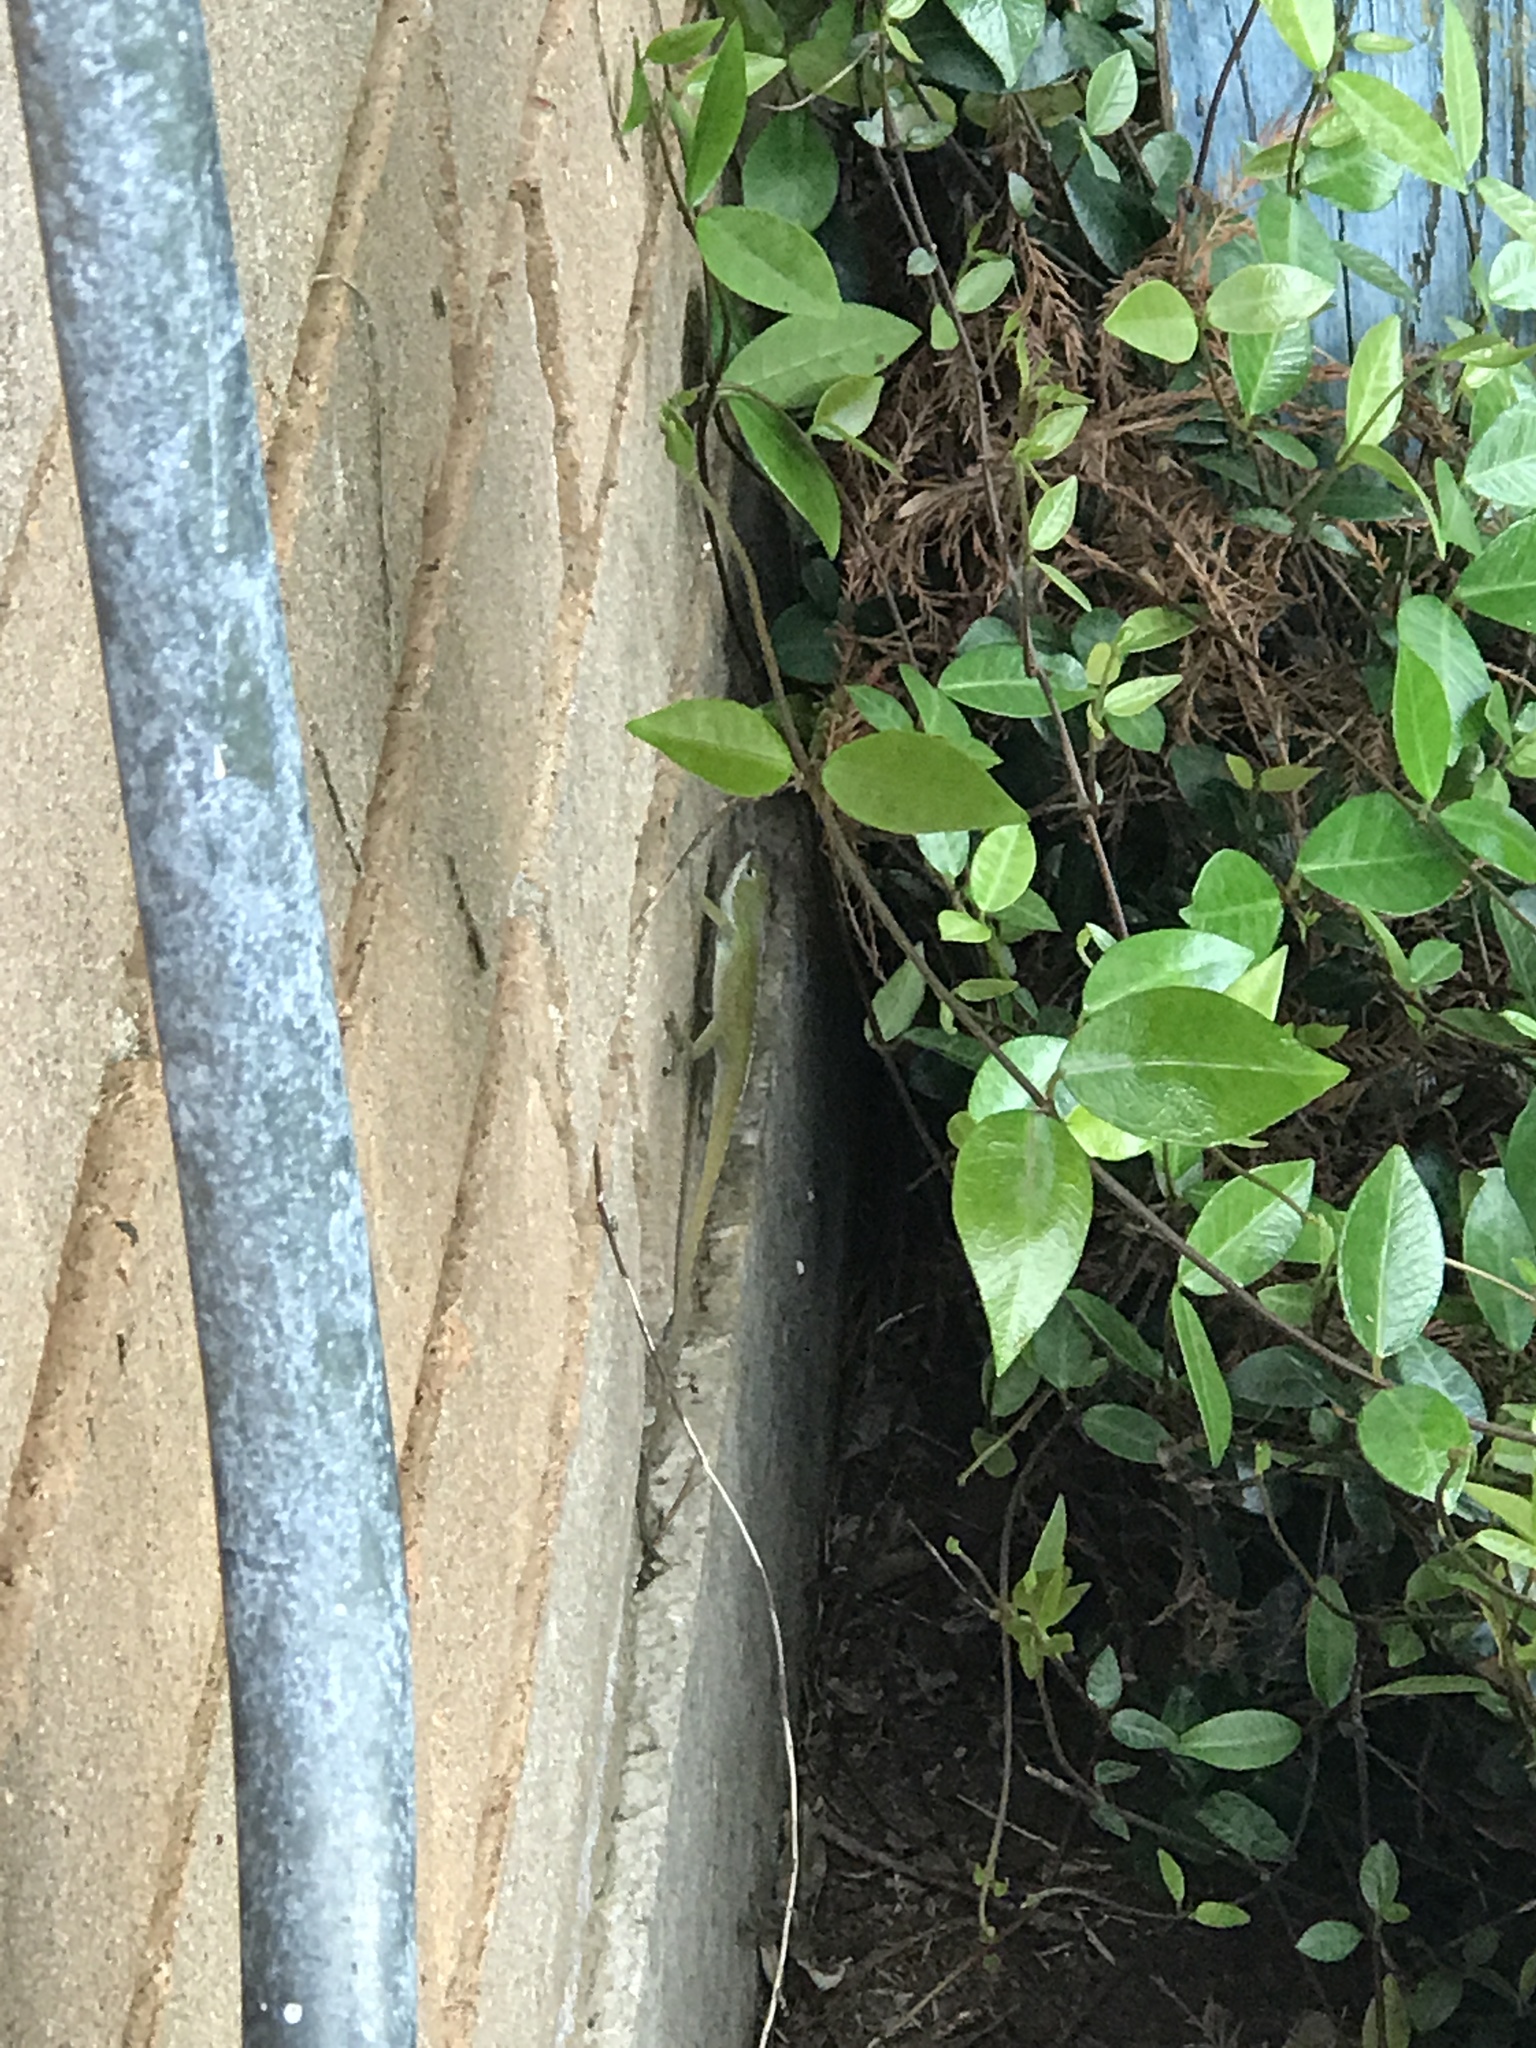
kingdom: Animalia
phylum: Chordata
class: Squamata
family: Dactyloidae
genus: Anolis
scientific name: Anolis carolinensis
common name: Green anole
